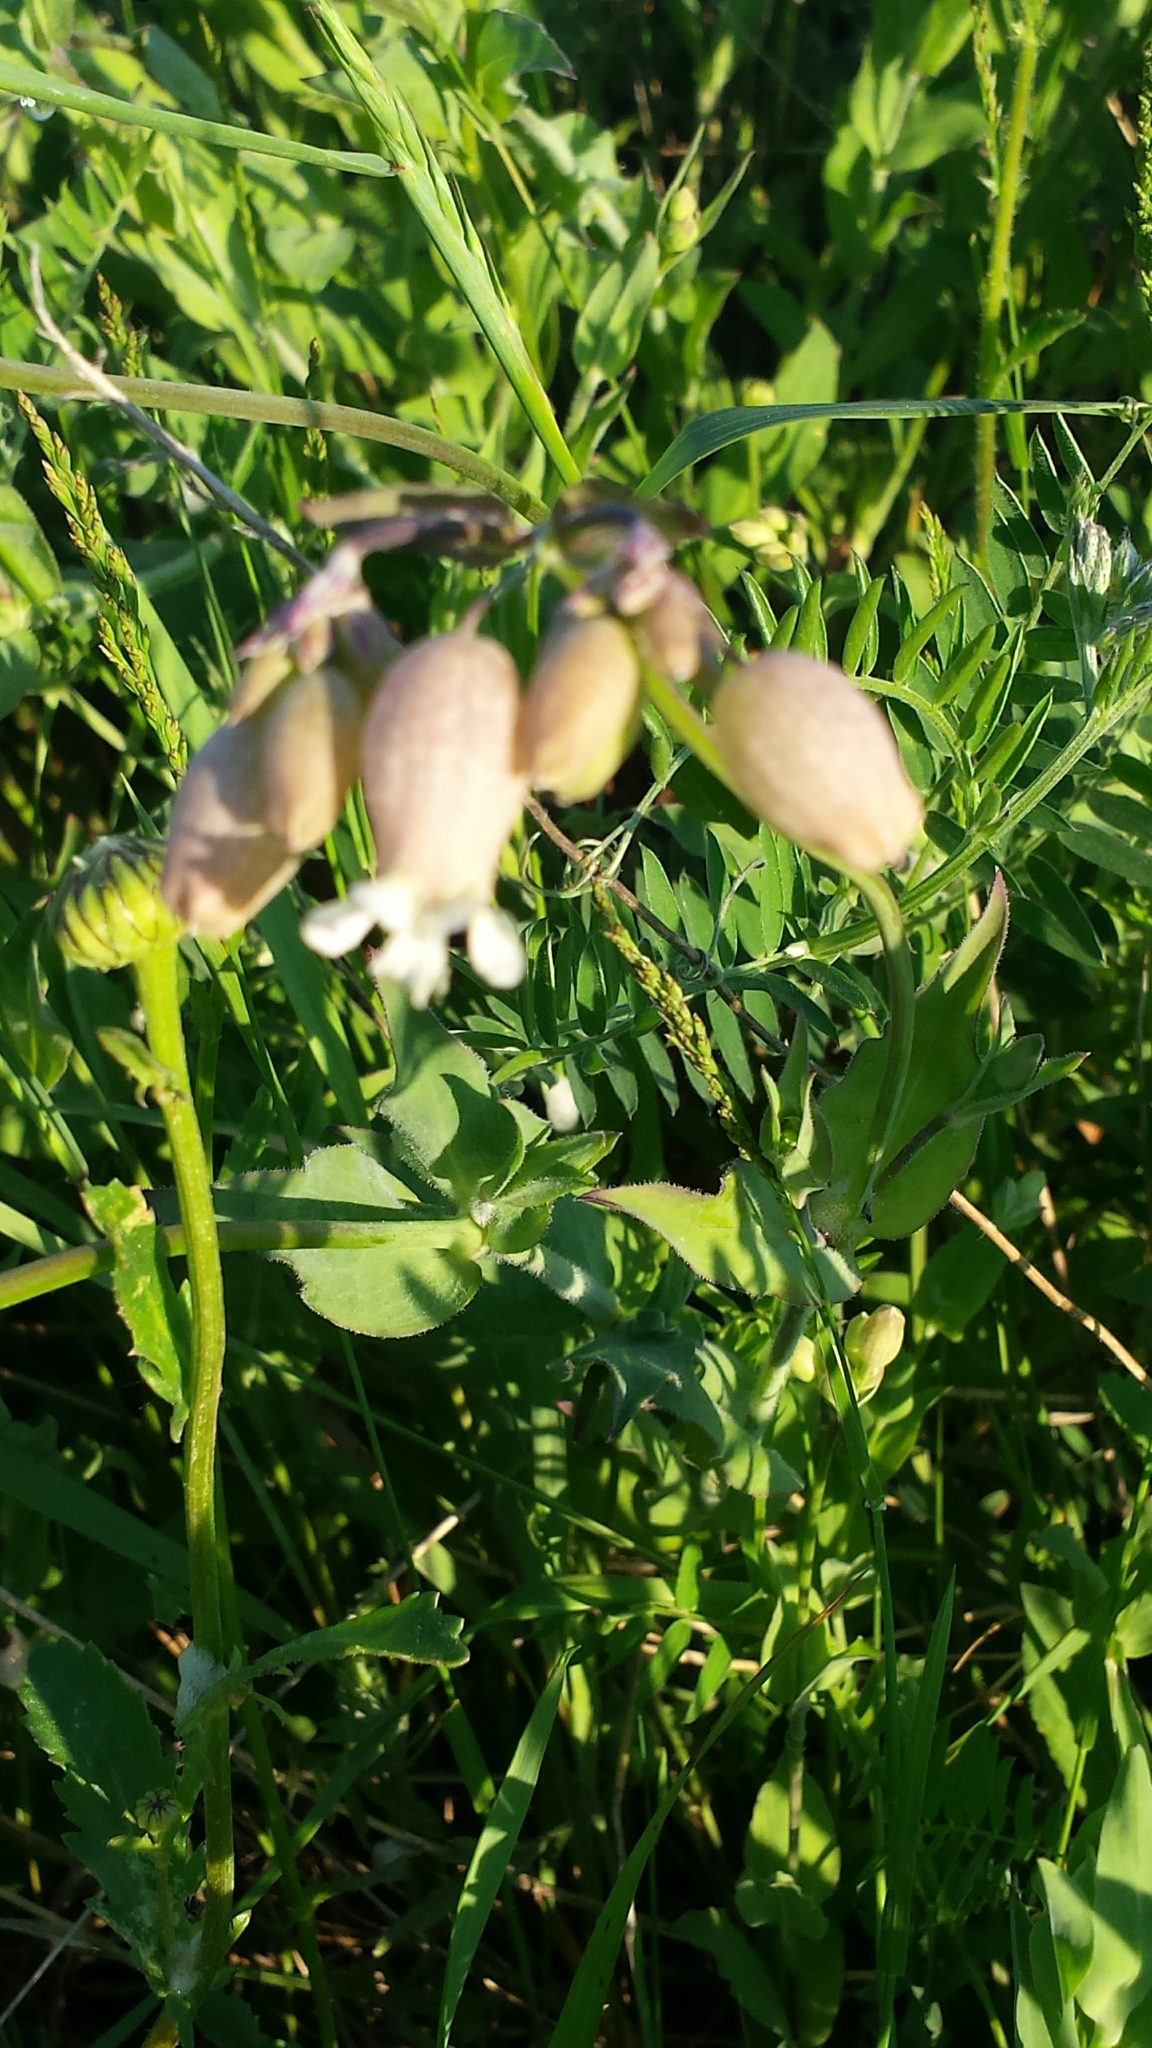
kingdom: Plantae
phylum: Tracheophyta
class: Magnoliopsida
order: Caryophyllales
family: Caryophyllaceae
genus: Silene
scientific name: Silene vulgaris
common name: Bladder campion
